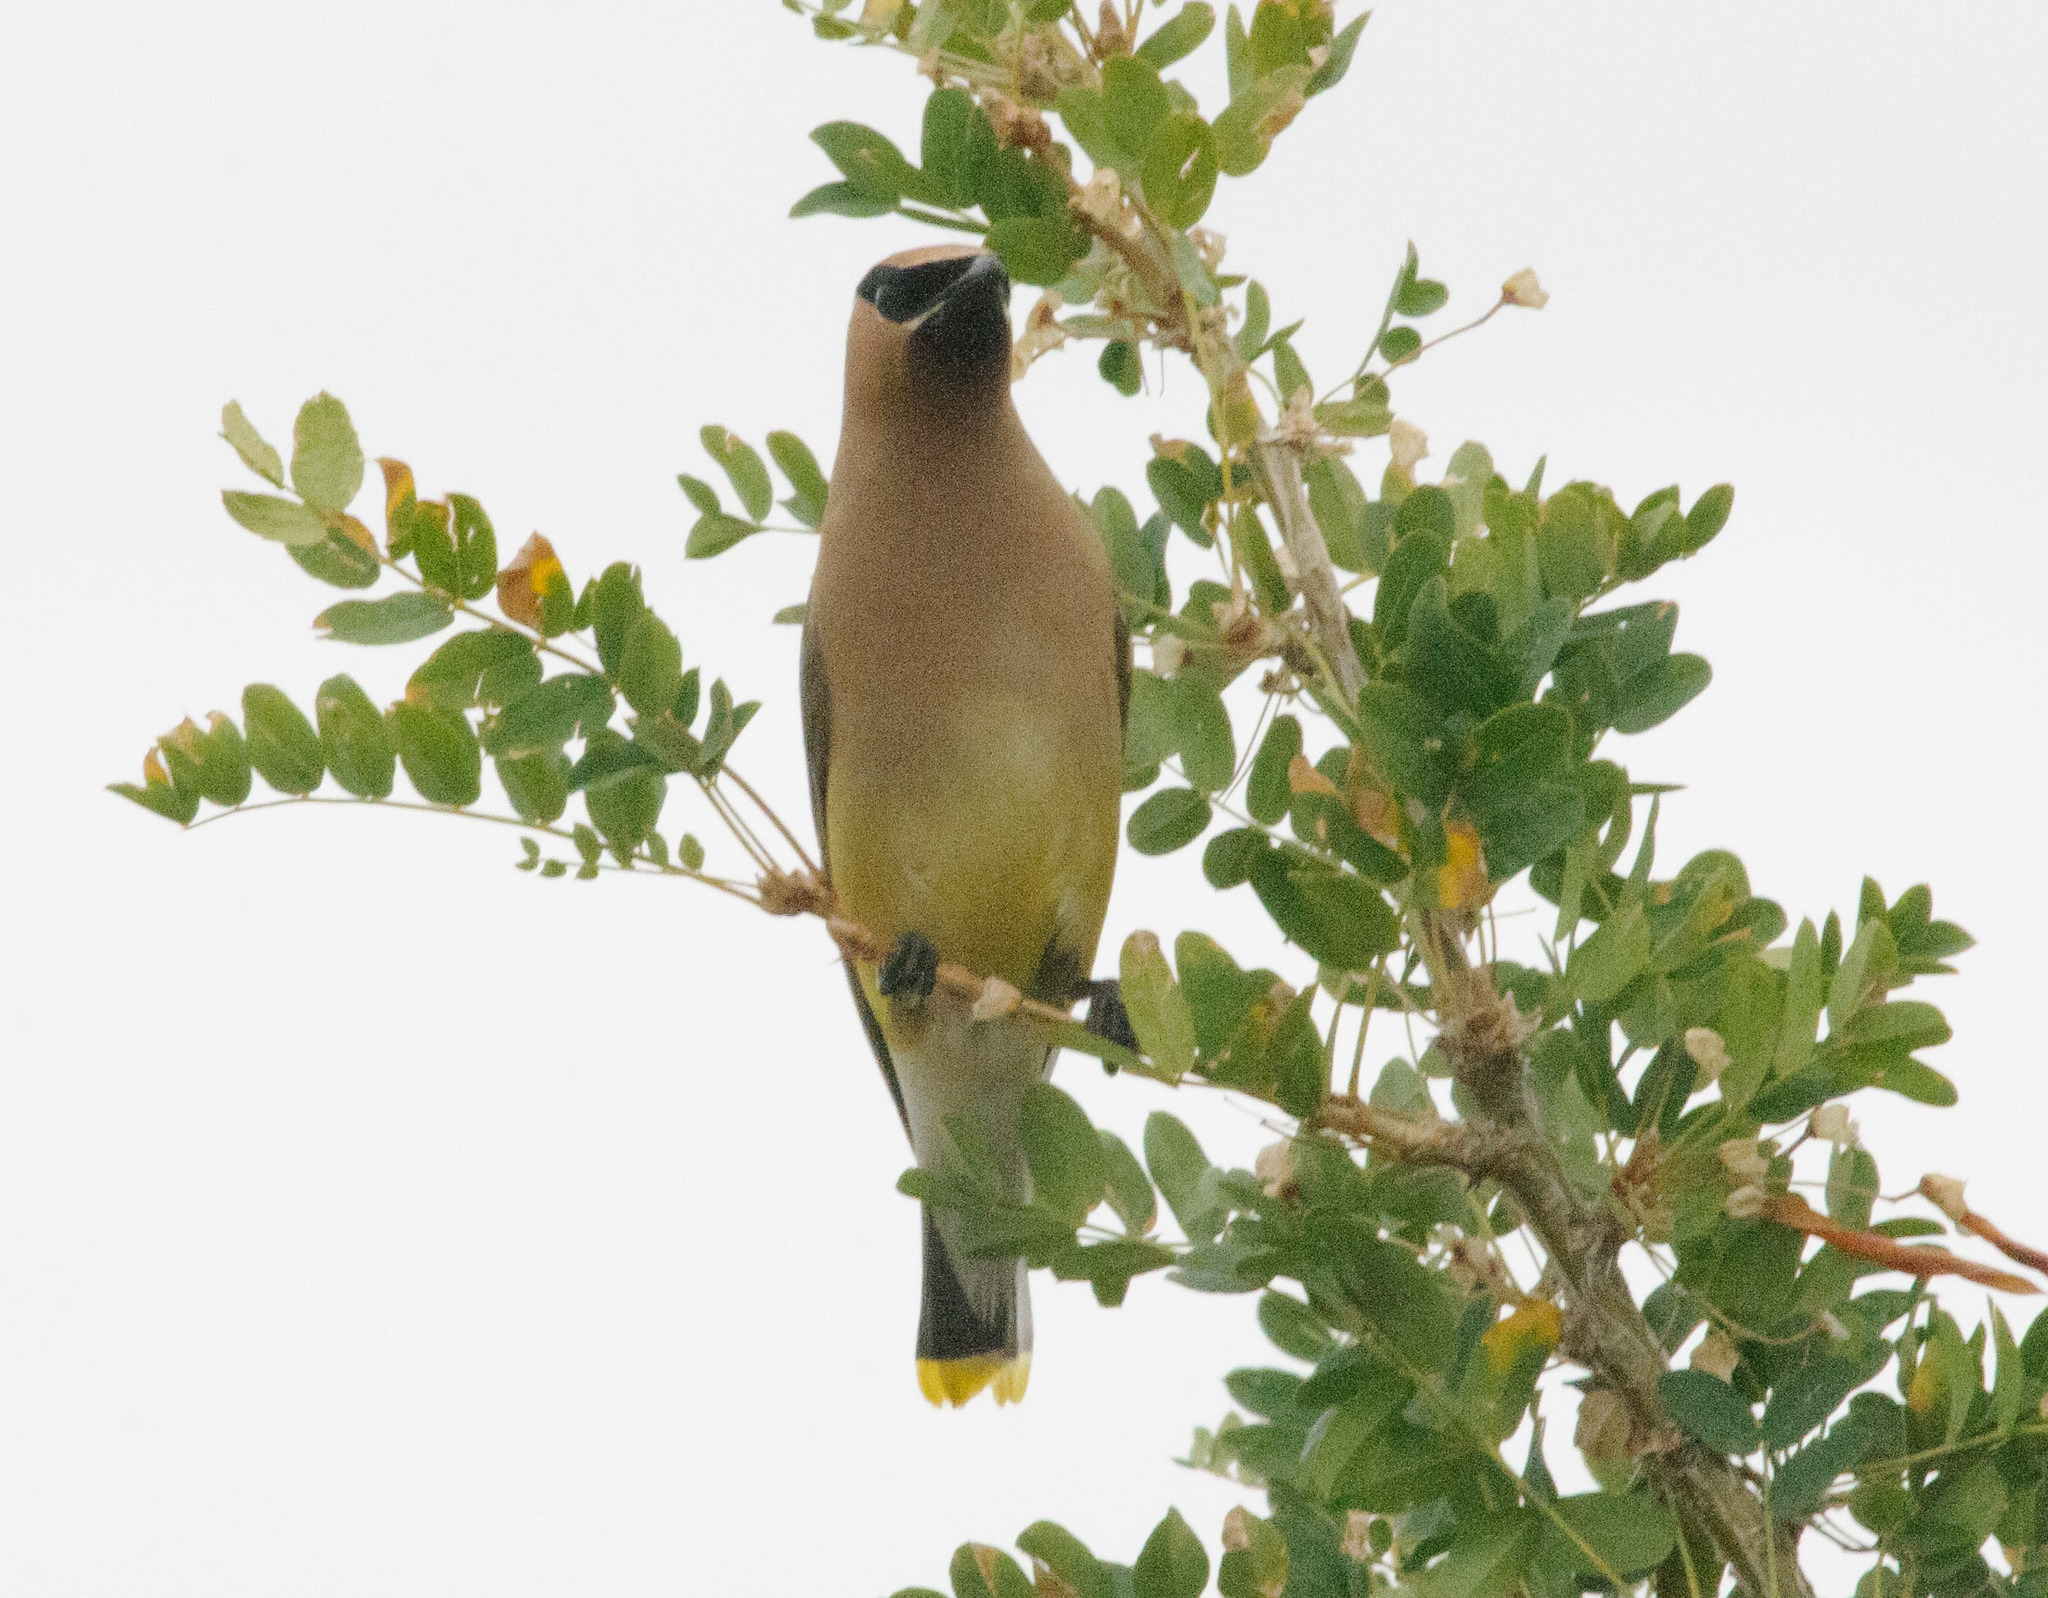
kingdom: Animalia
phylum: Chordata
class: Aves
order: Passeriformes
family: Bombycillidae
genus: Bombycilla
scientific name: Bombycilla cedrorum
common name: Cedar waxwing
